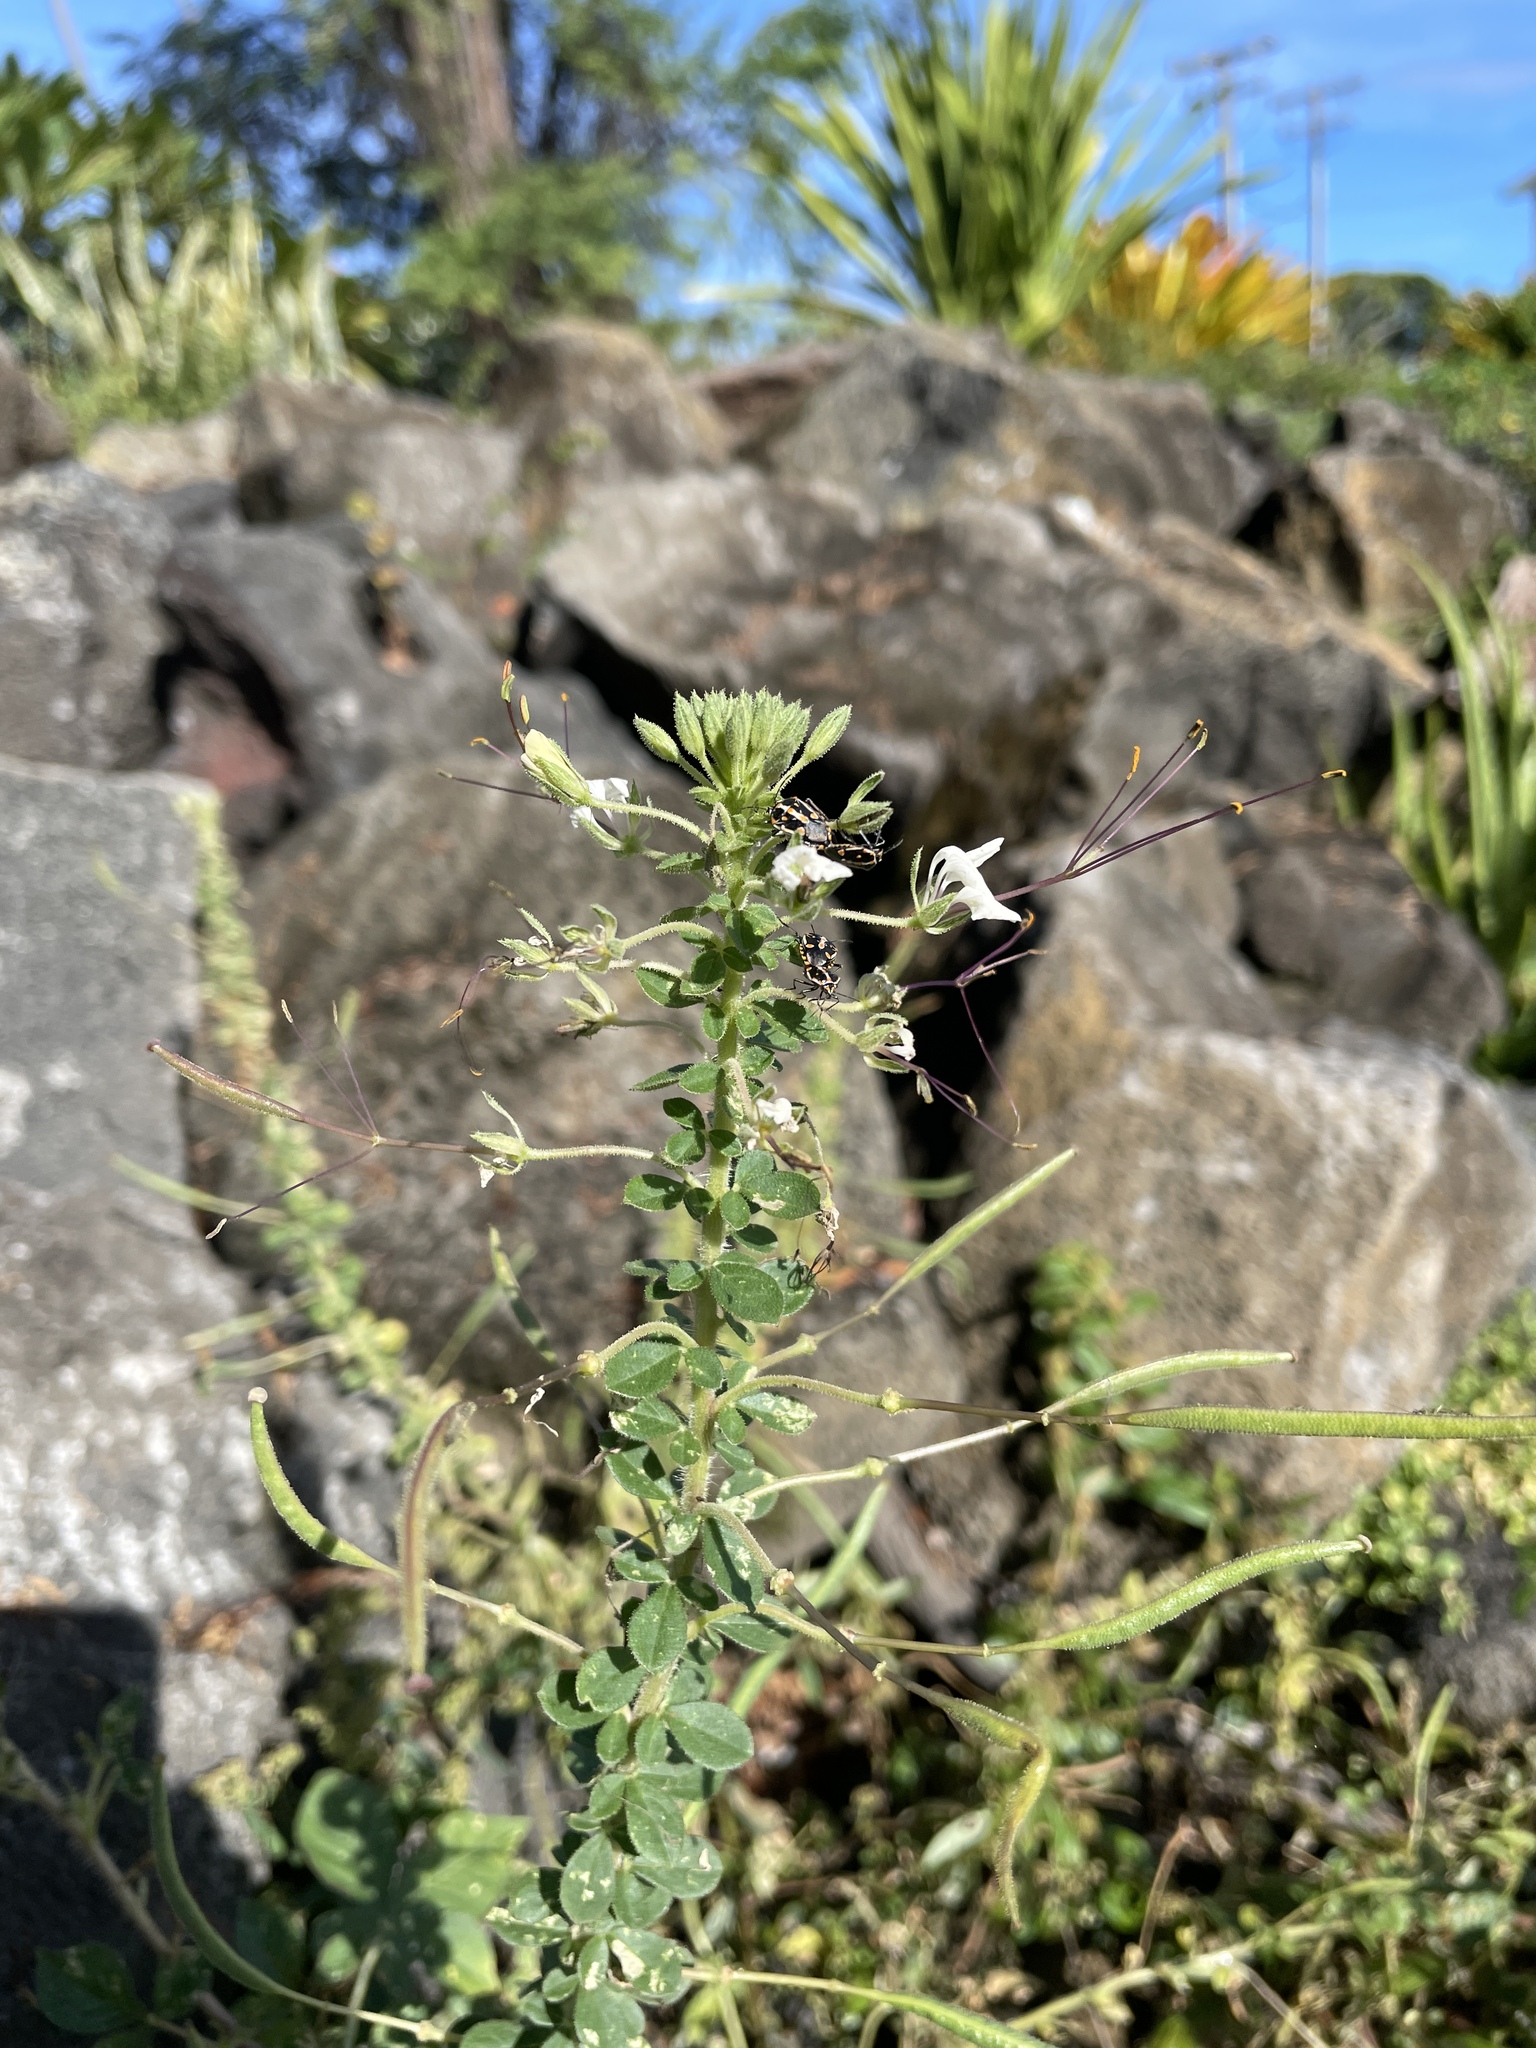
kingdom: Plantae
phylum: Tracheophyta
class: Magnoliopsida
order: Brassicales
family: Cleomaceae
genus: Gynandropsis
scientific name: Gynandropsis gynandra
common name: Spiderwisp
